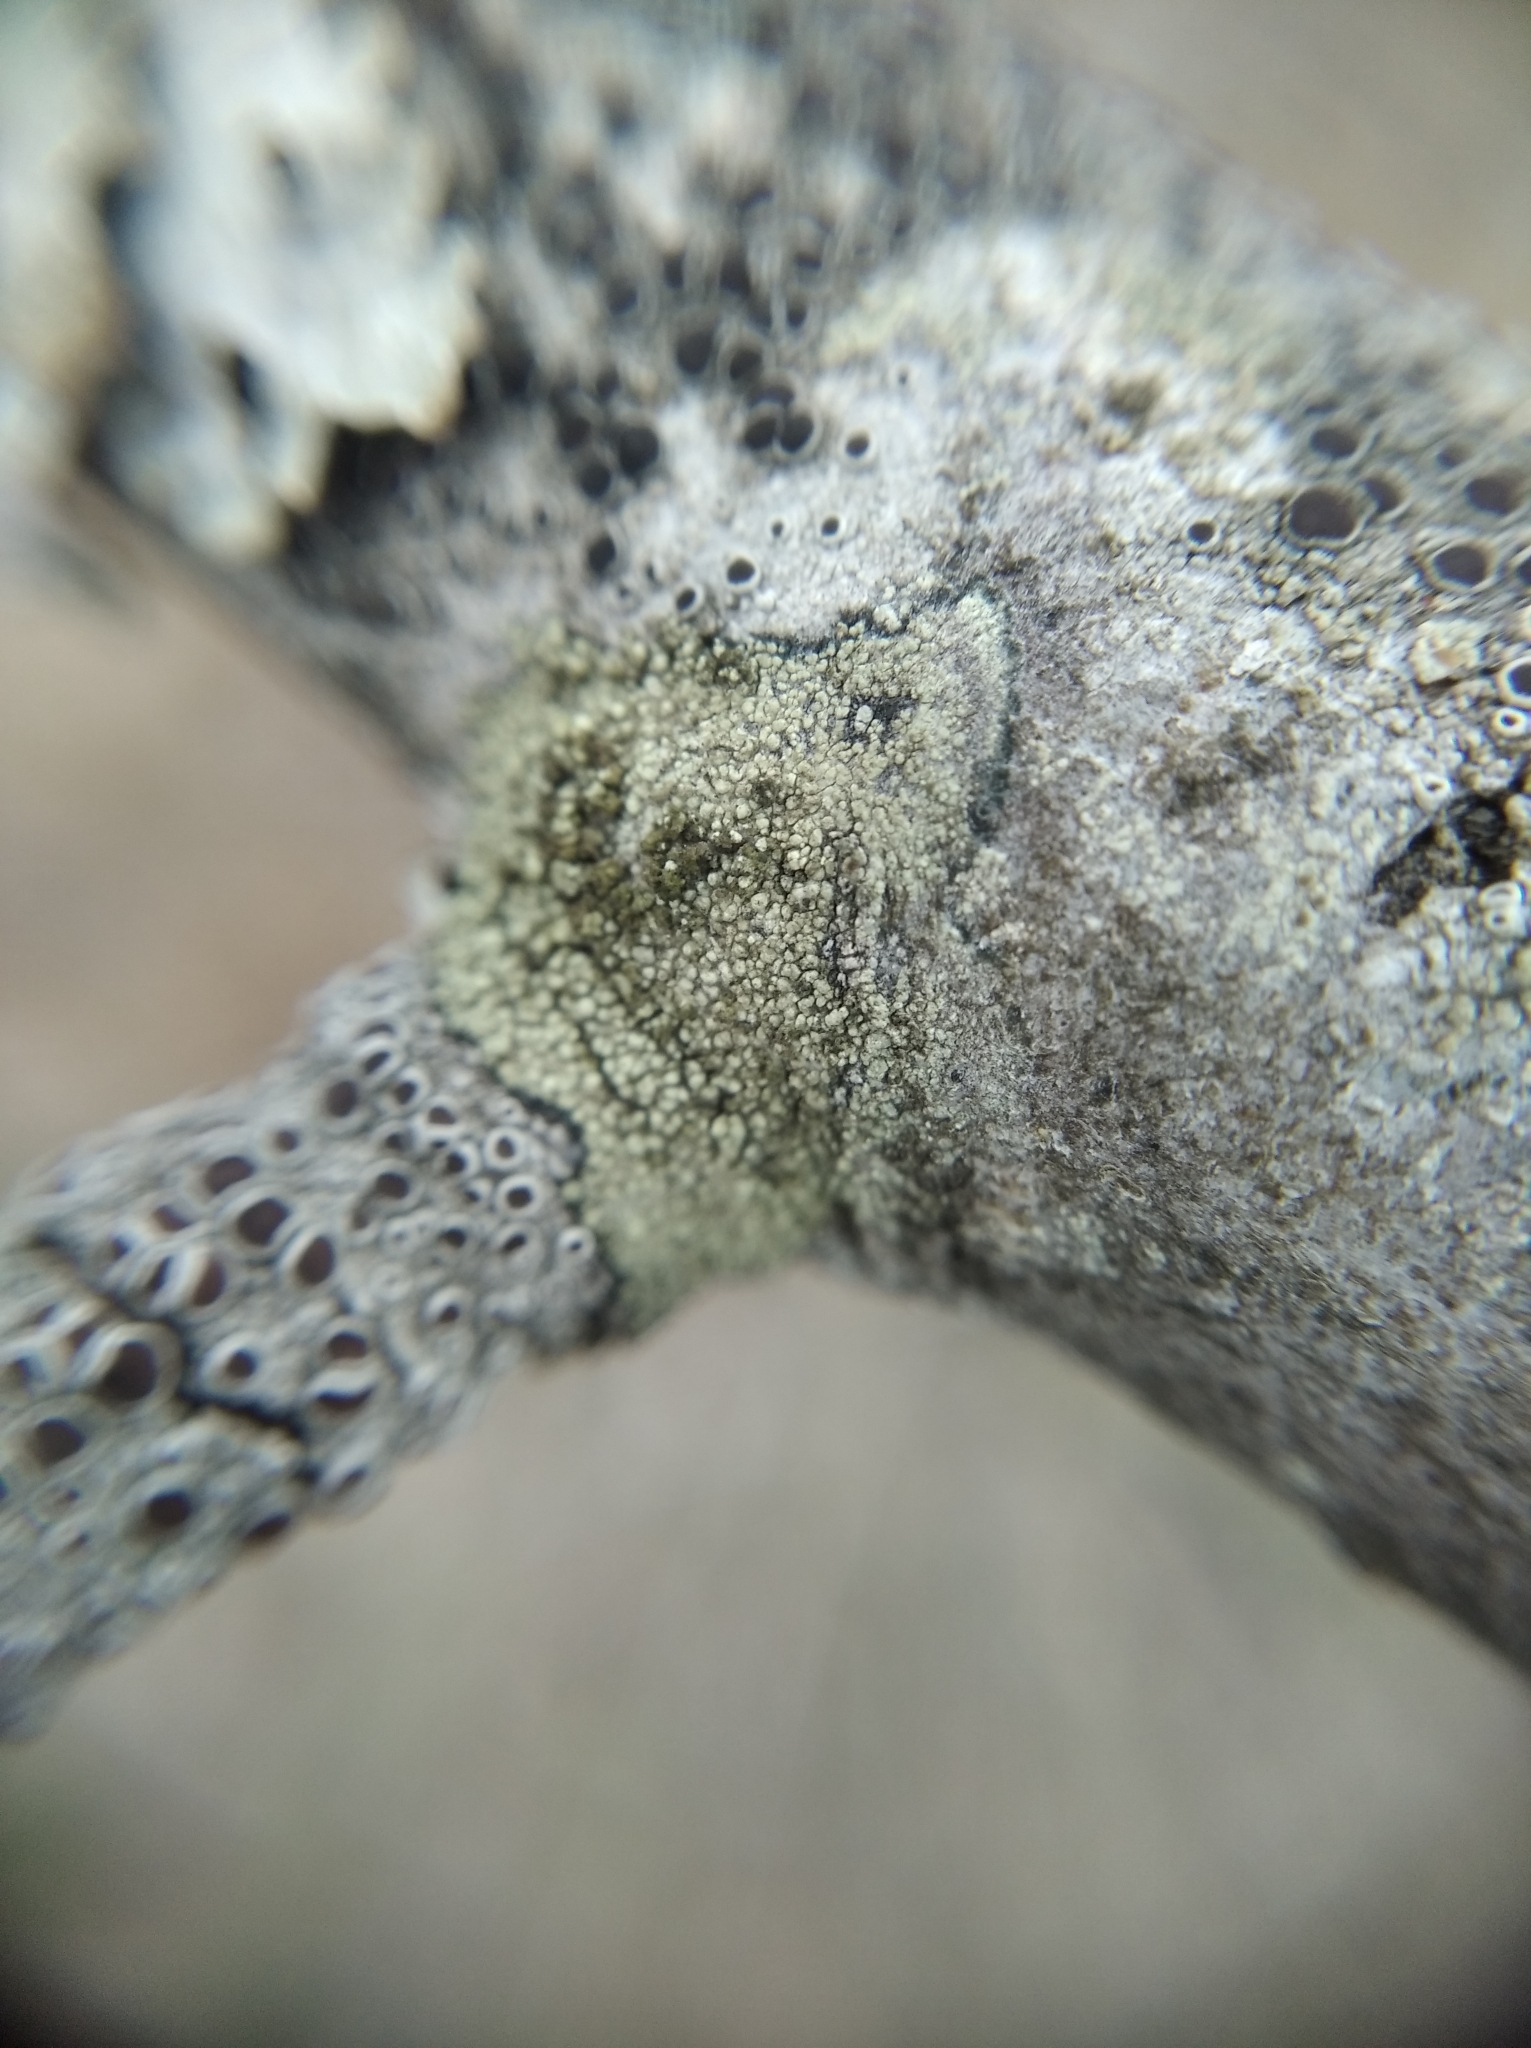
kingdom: Fungi
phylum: Ascomycota
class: Lecanoromycetes
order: Lecanorales
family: Lecanoraceae
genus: Lecidella
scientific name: Lecidella elaeochroma
